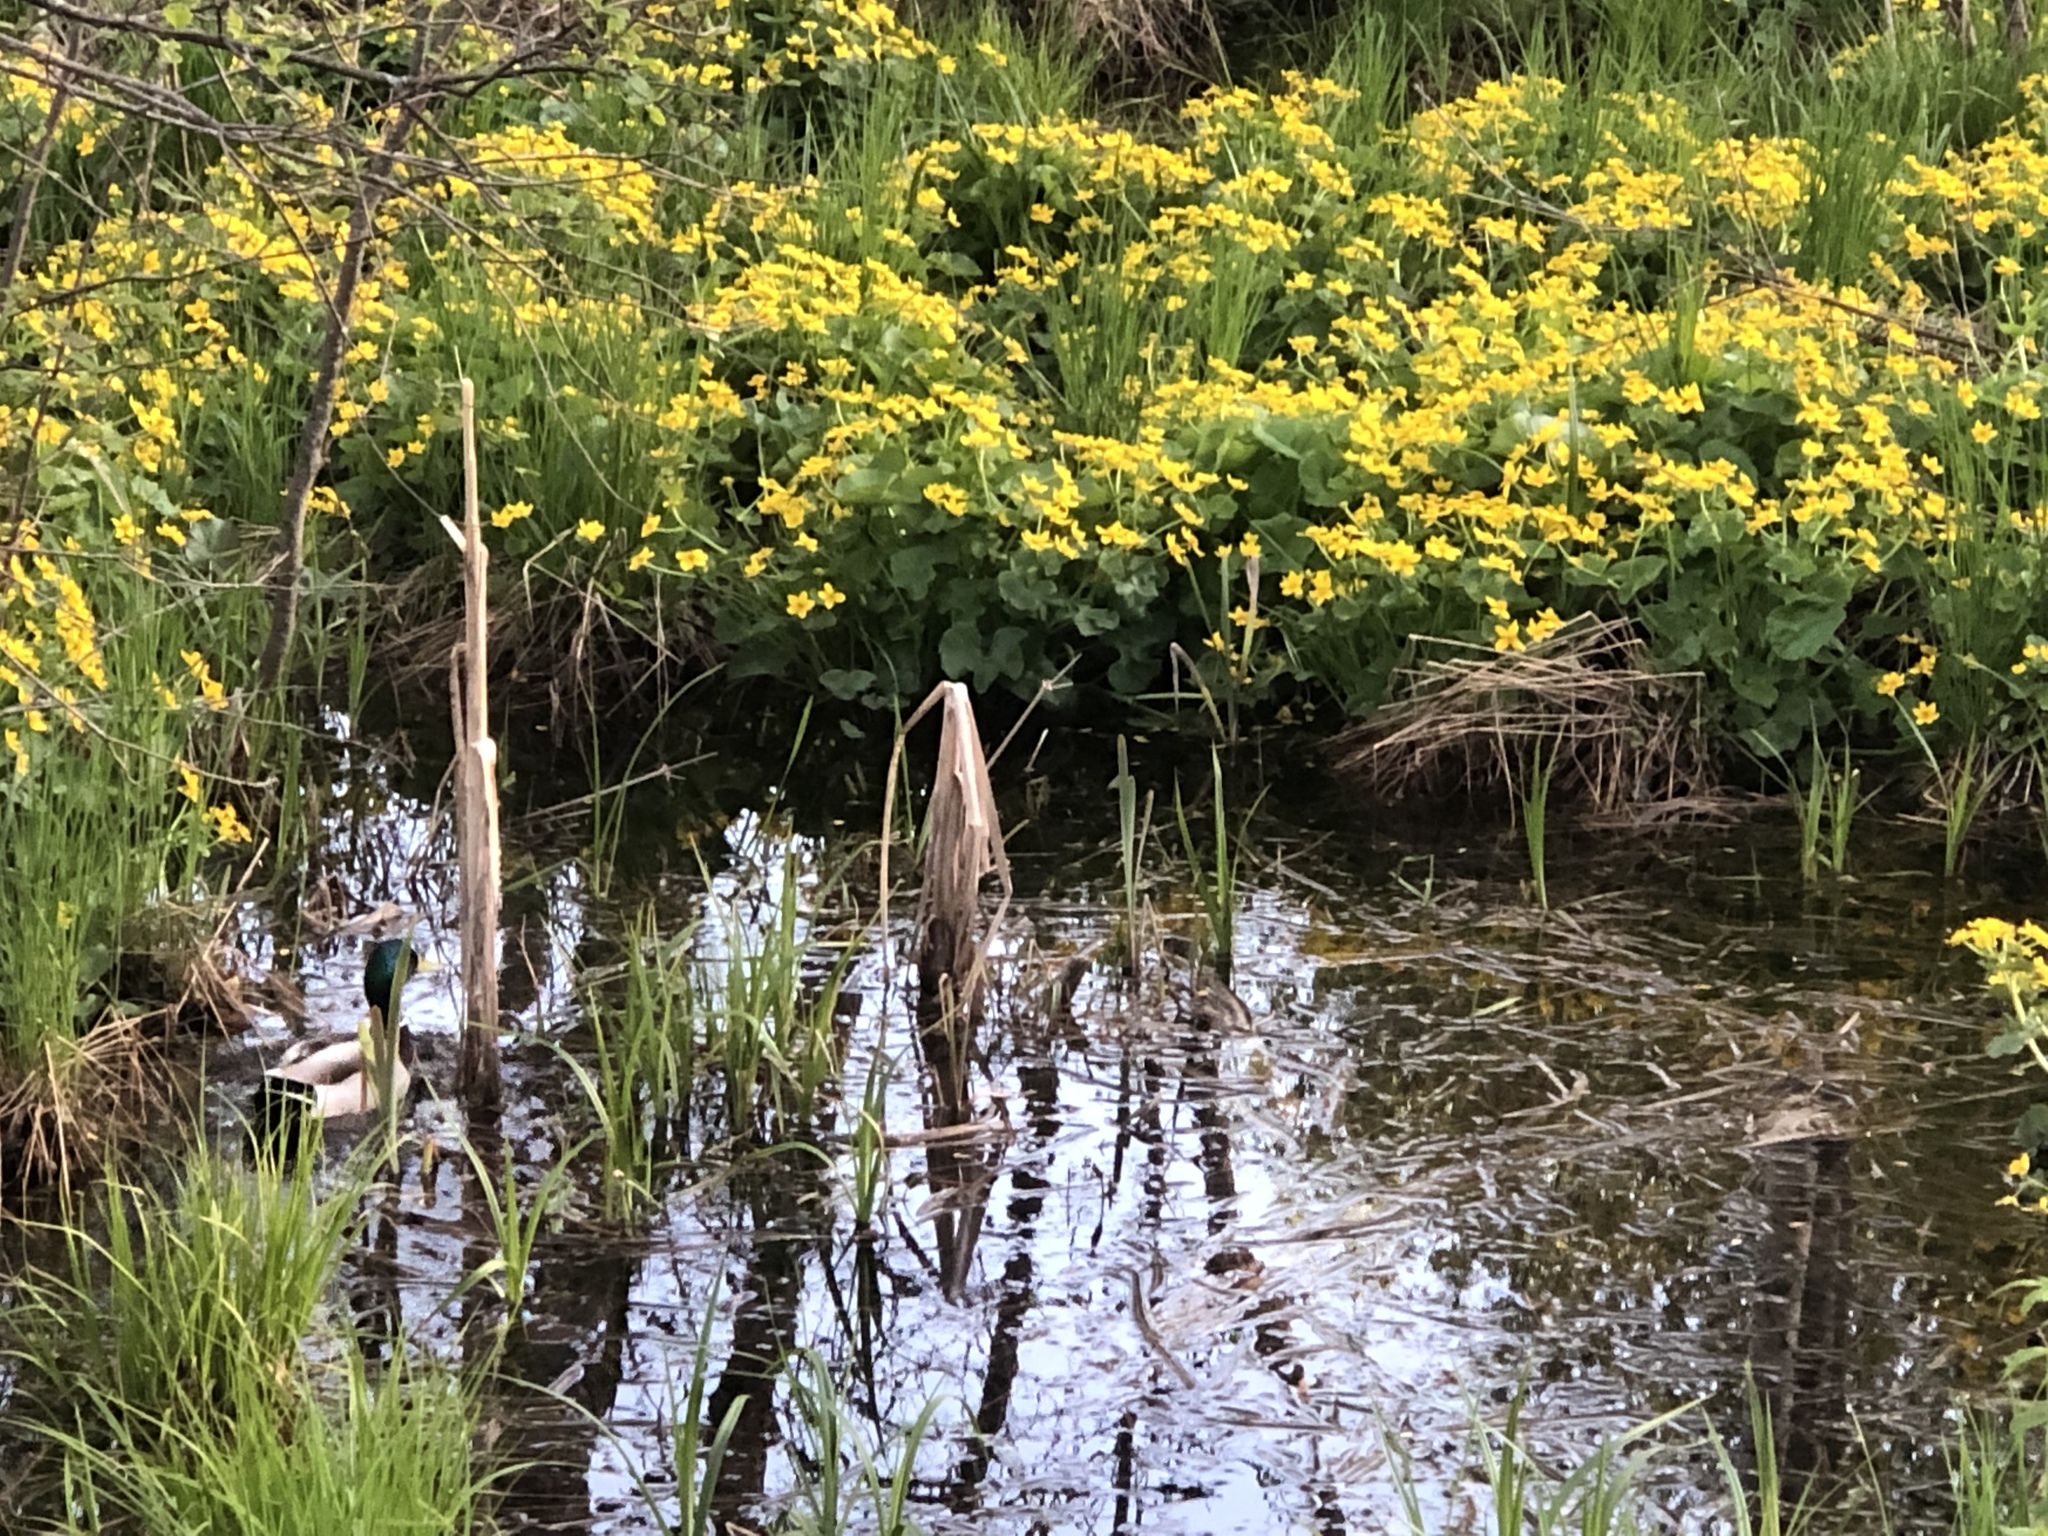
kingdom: Plantae
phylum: Tracheophyta
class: Magnoliopsida
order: Ranunculales
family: Ranunculaceae
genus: Caltha
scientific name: Caltha palustris
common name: Marsh marigold
